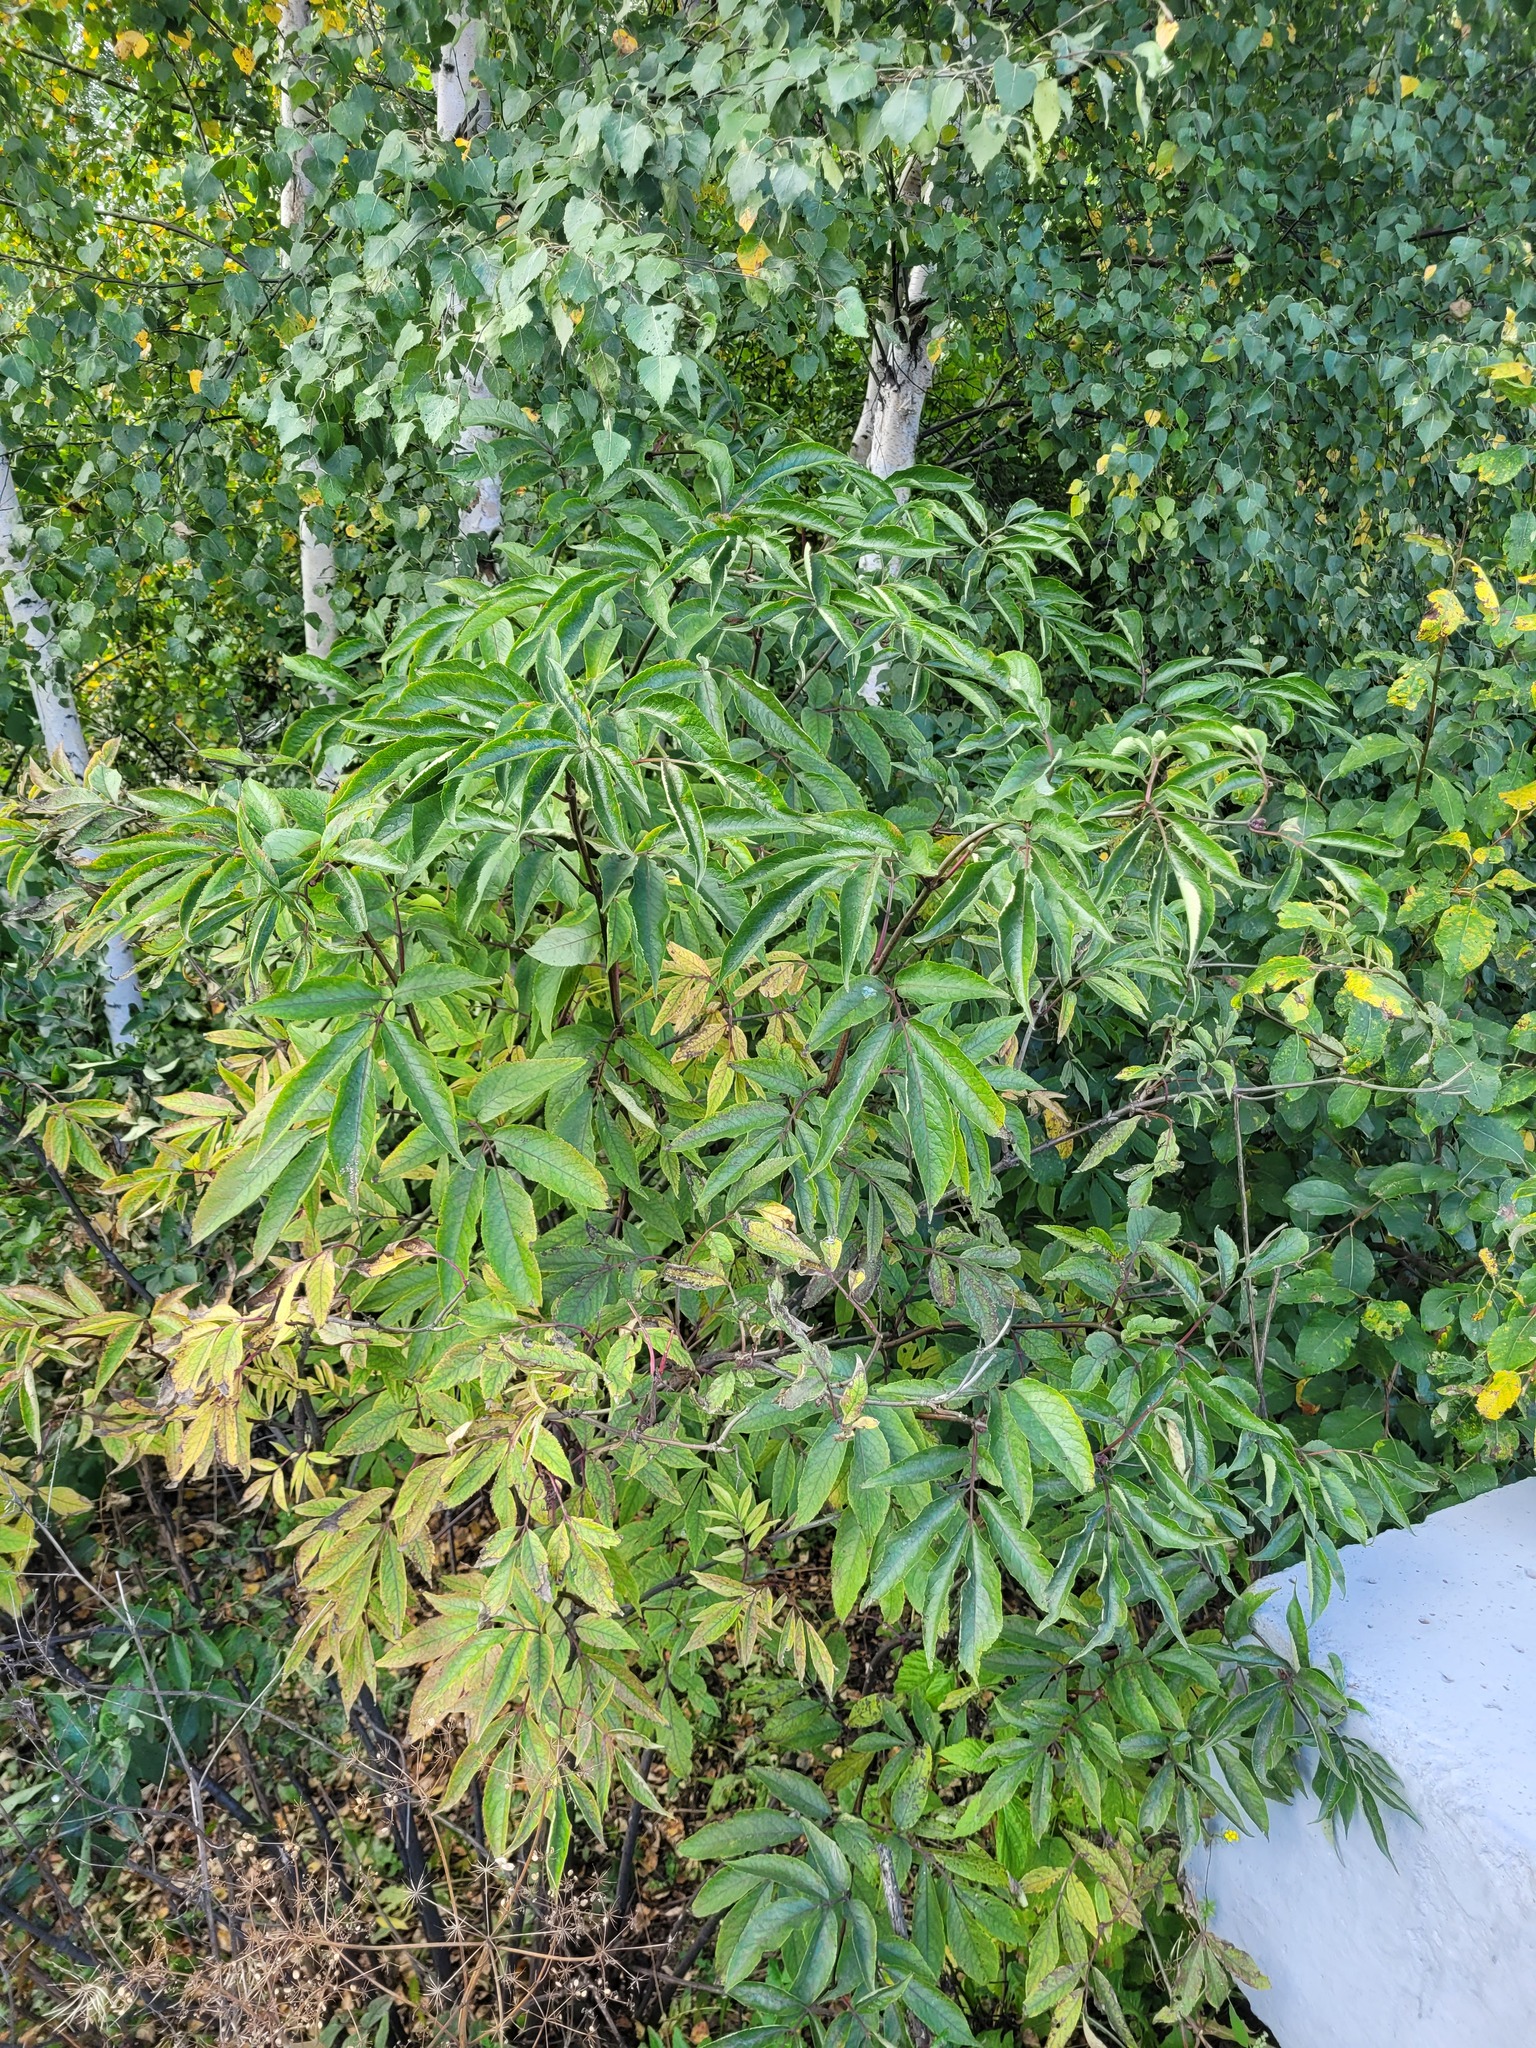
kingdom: Plantae
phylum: Tracheophyta
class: Magnoliopsida
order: Dipsacales
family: Viburnaceae
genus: Sambucus
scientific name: Sambucus racemosa
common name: Red-berried elder
